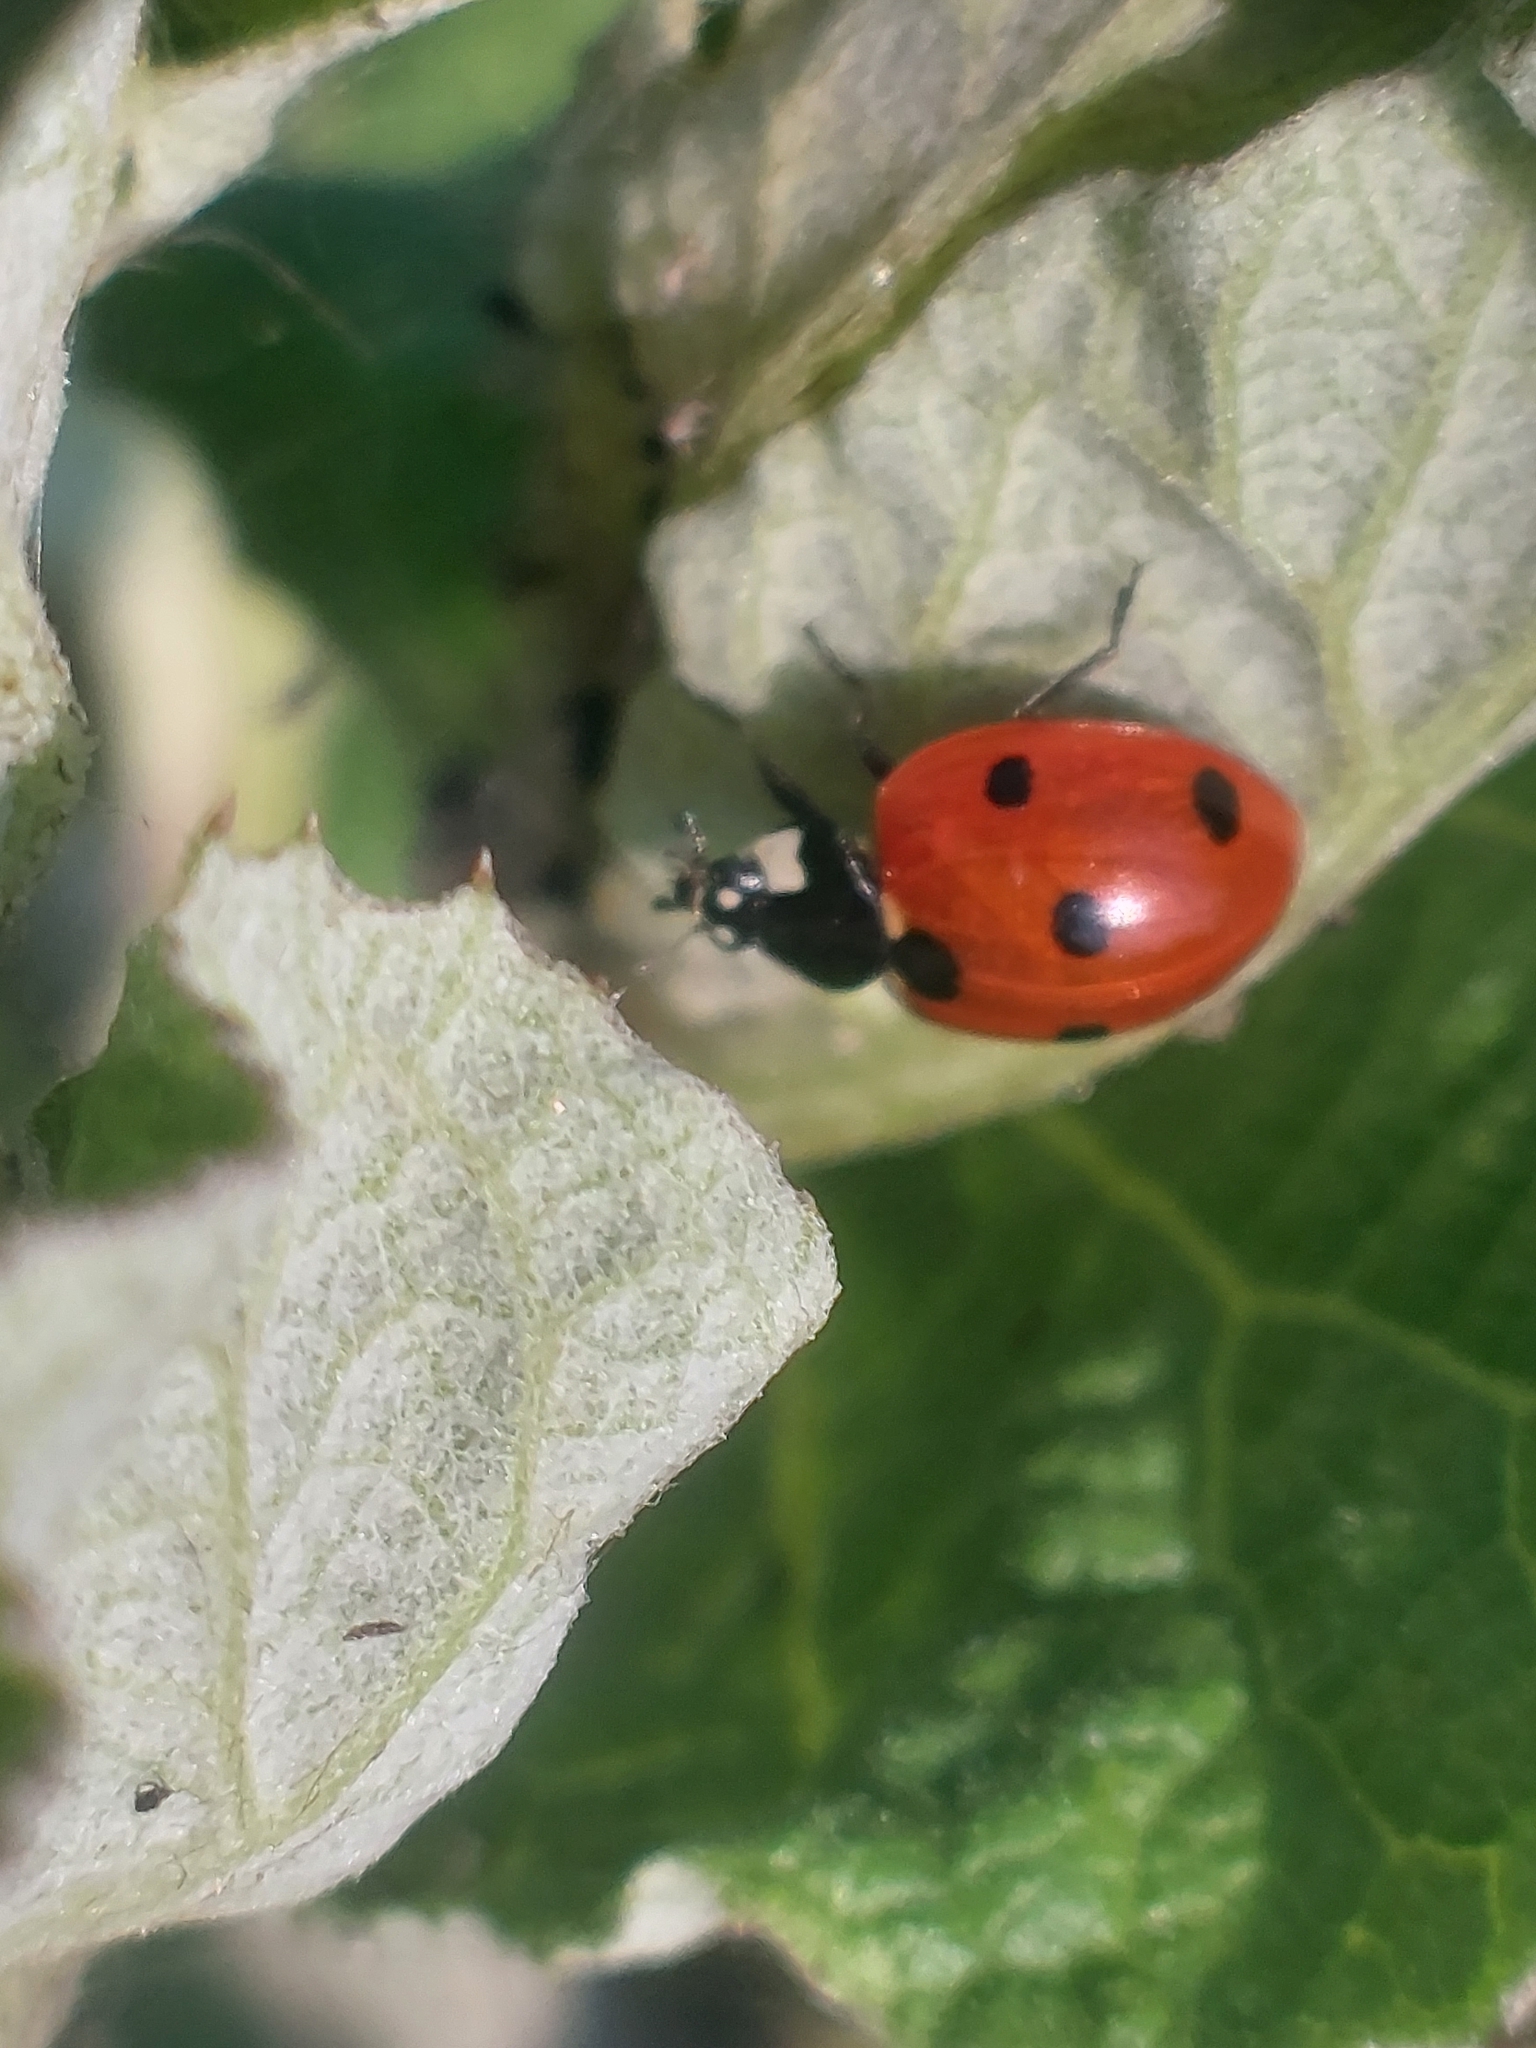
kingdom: Animalia
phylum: Arthropoda
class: Insecta
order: Coleoptera
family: Coccinellidae
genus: Coccinella
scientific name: Coccinella septempunctata
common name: Sevenspotted lady beetle
